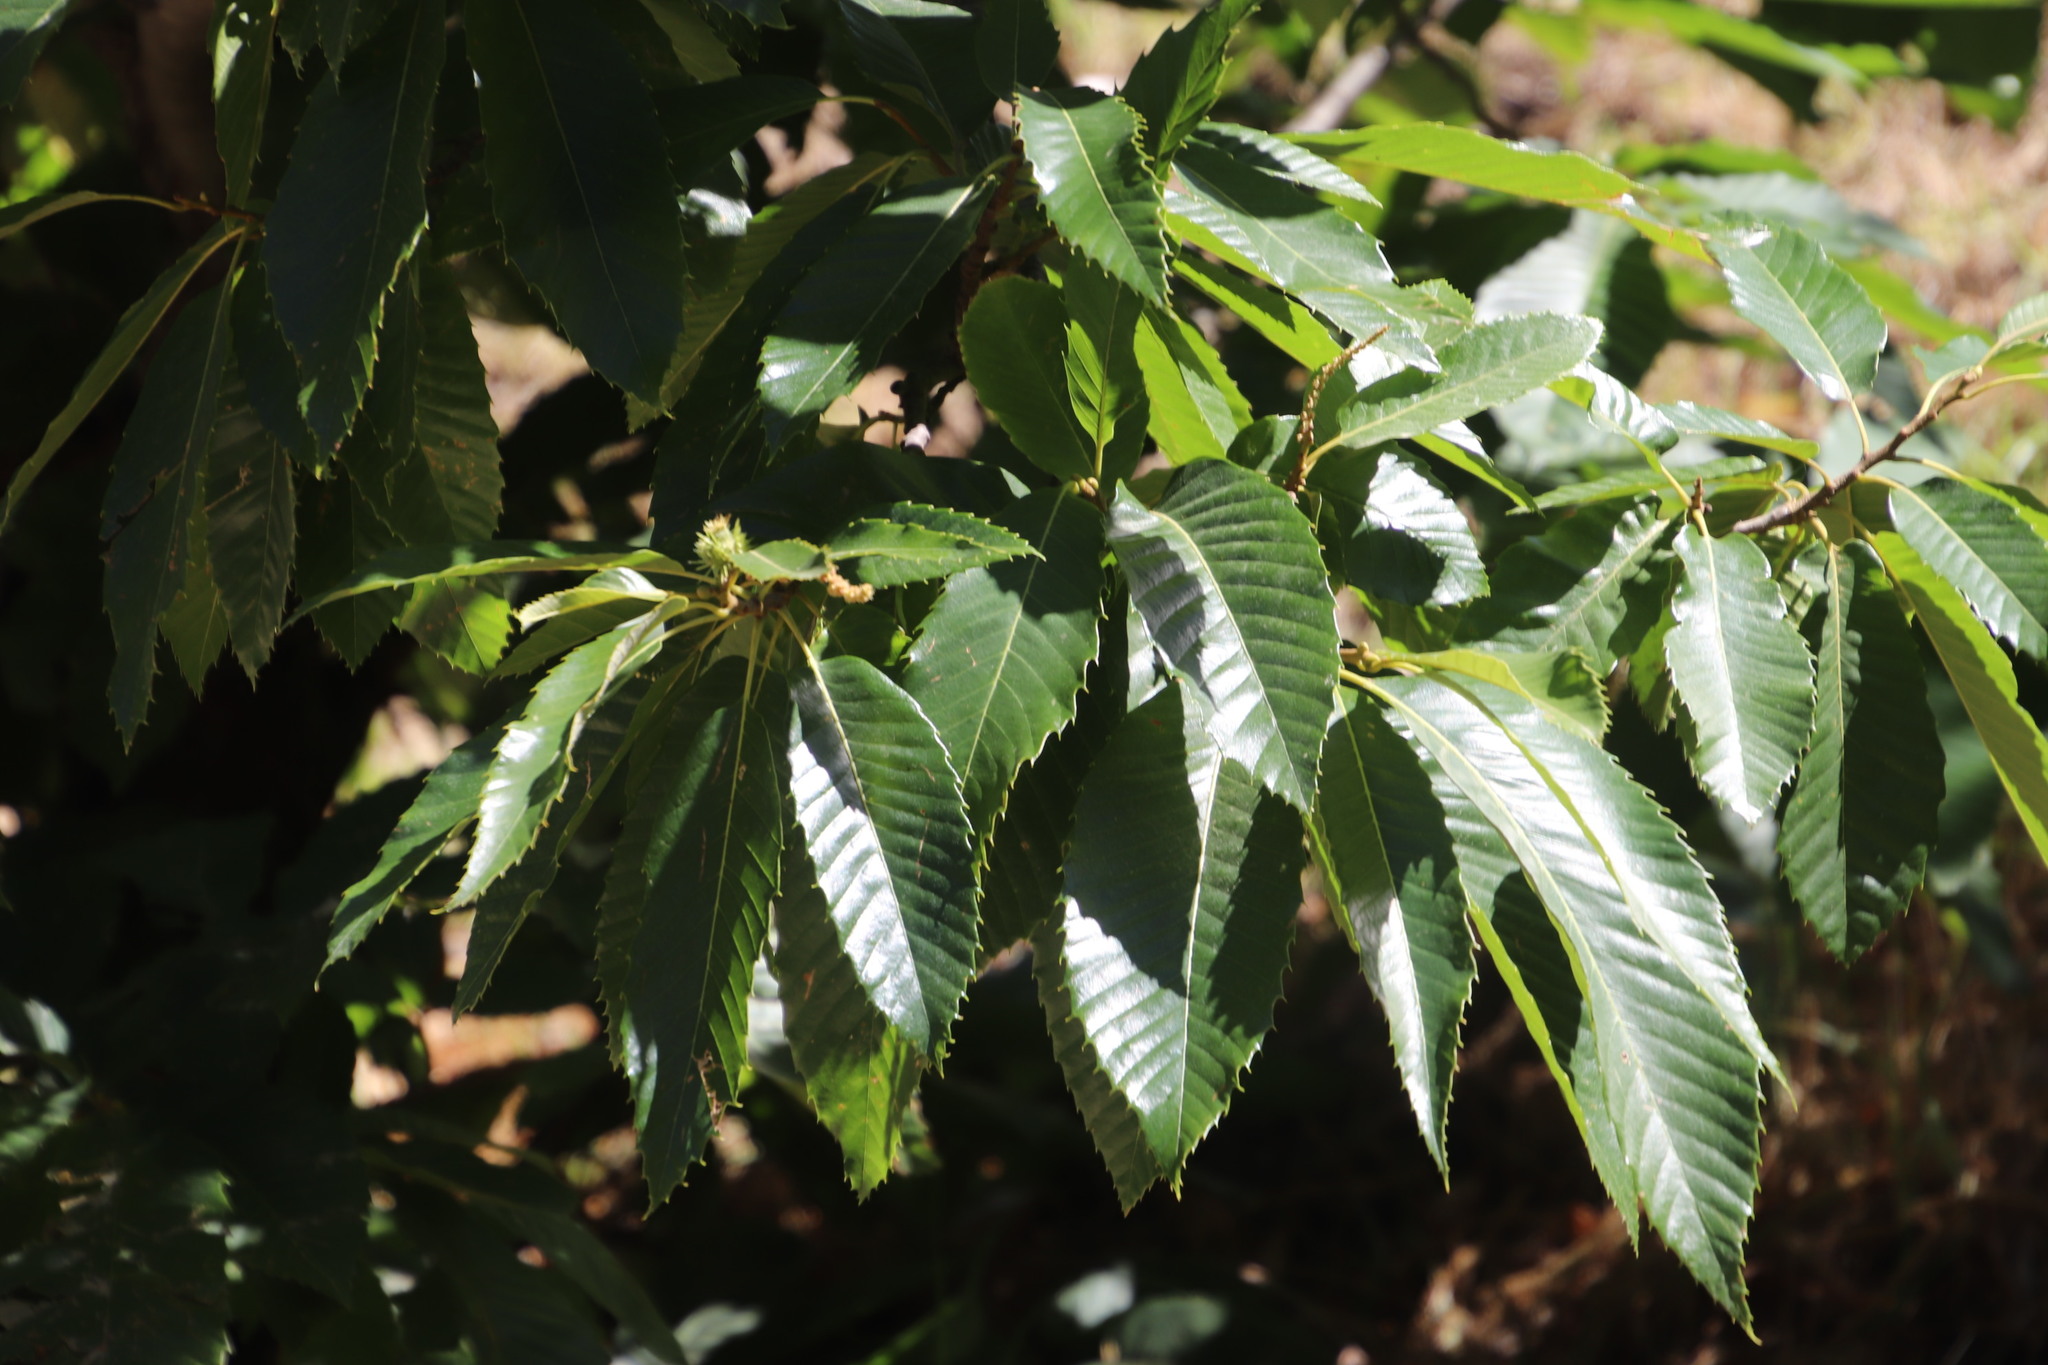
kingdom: Plantae
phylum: Tracheophyta
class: Magnoliopsida
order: Fagales
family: Fagaceae
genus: Castanea
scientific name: Castanea sativa
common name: Sweet chestnut
